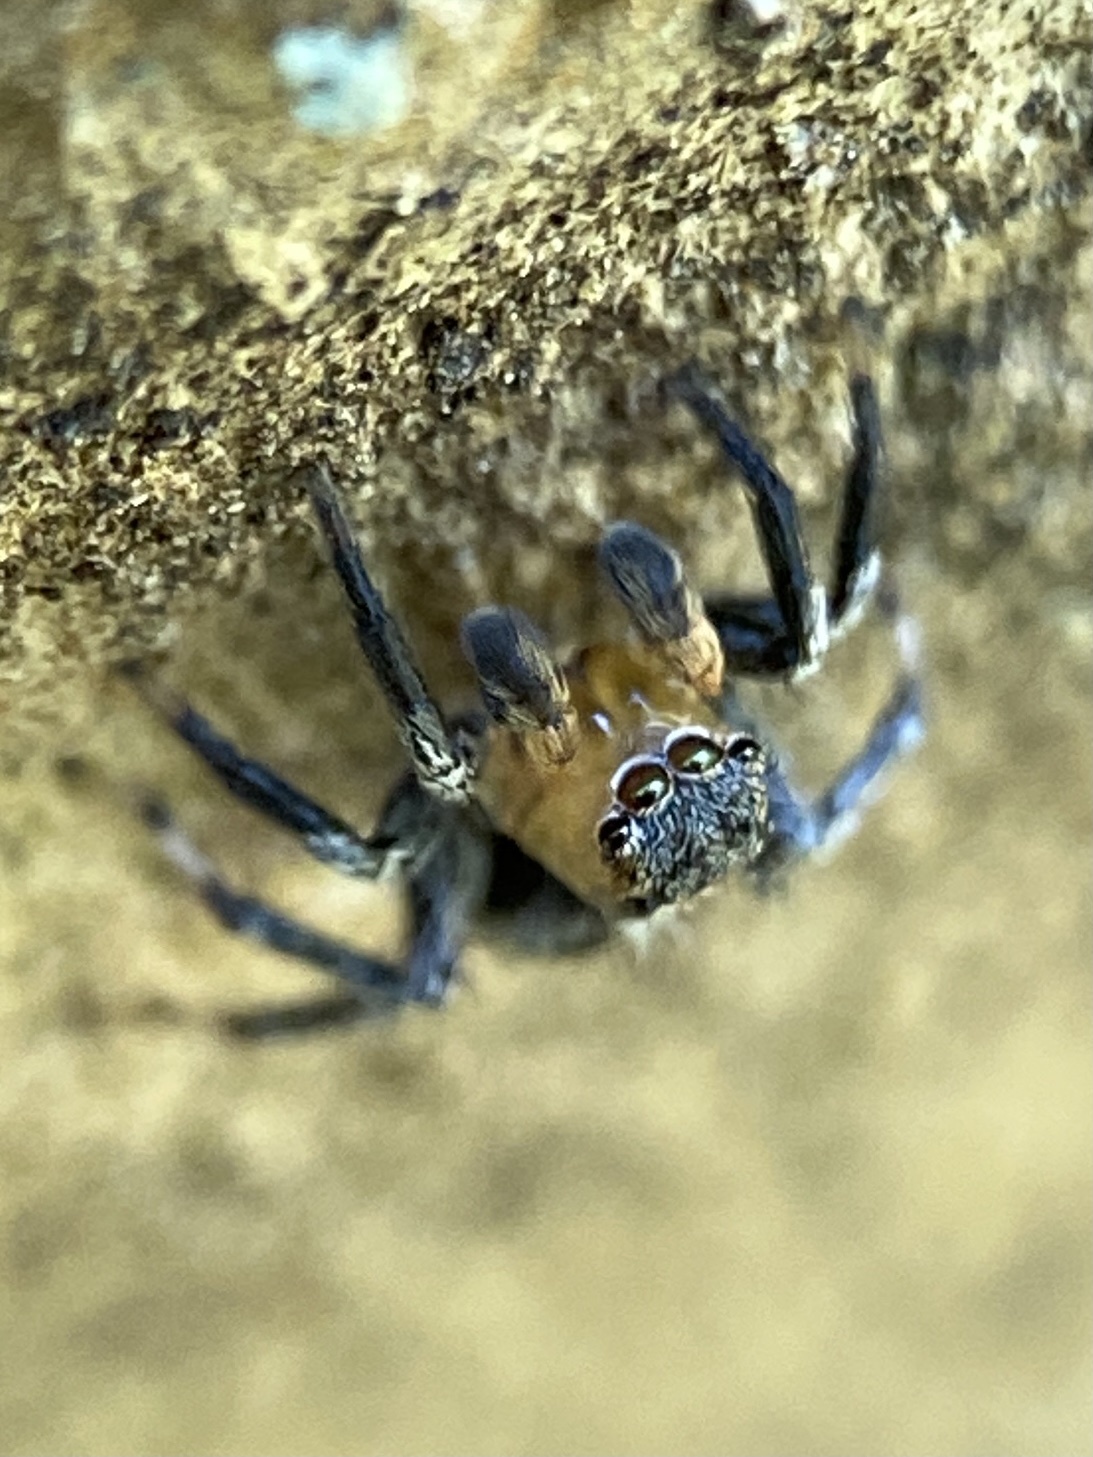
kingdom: Animalia
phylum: Arthropoda
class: Arachnida
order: Araneae
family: Salticidae
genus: Naphrys
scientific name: Naphrys pulex
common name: Flea jumping spider
